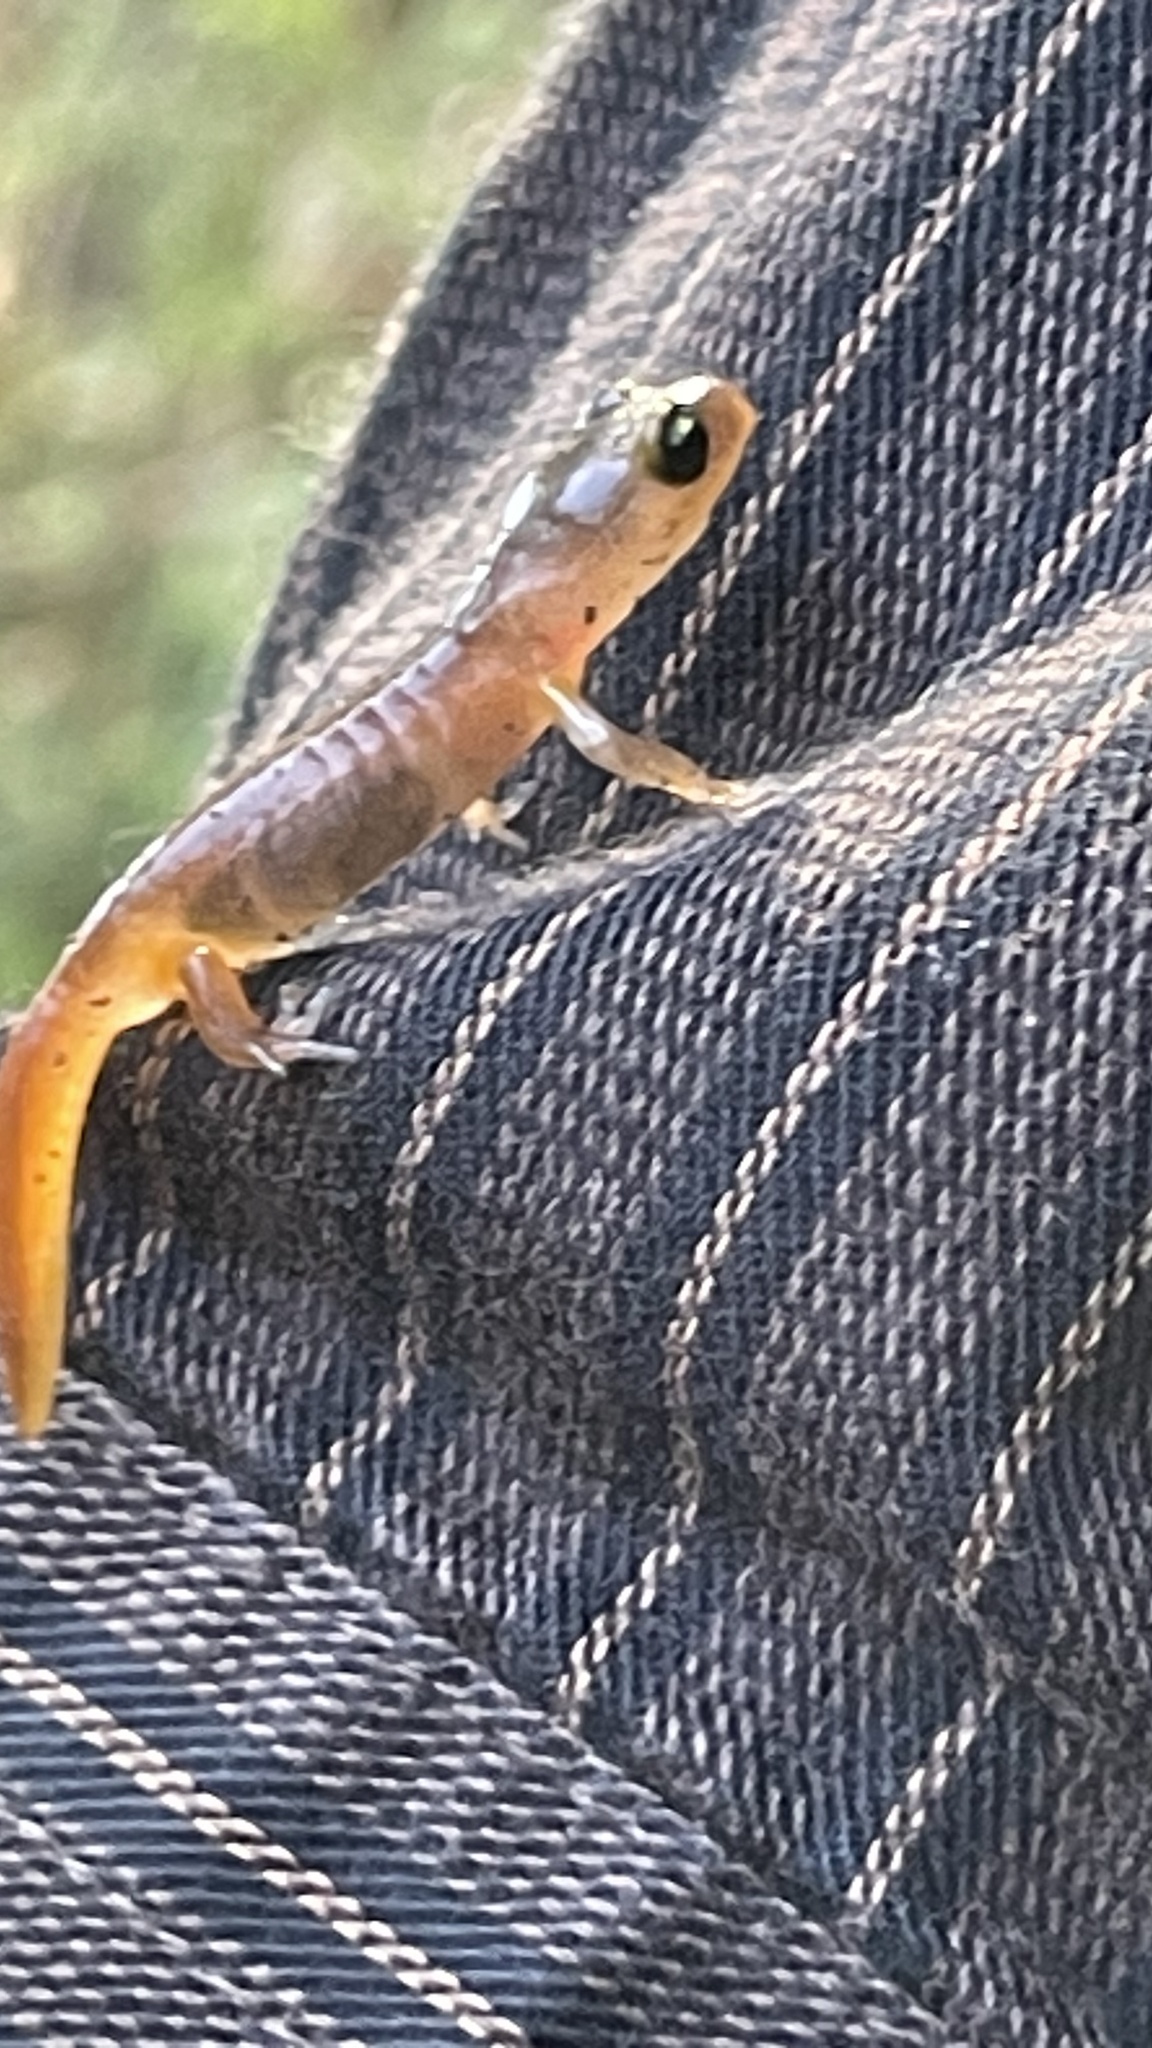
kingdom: Animalia
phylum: Chordata
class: Amphibia
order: Caudata
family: Plethodontidae
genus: Ensatina
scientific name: Ensatina eschscholtzii
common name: Ensatina
